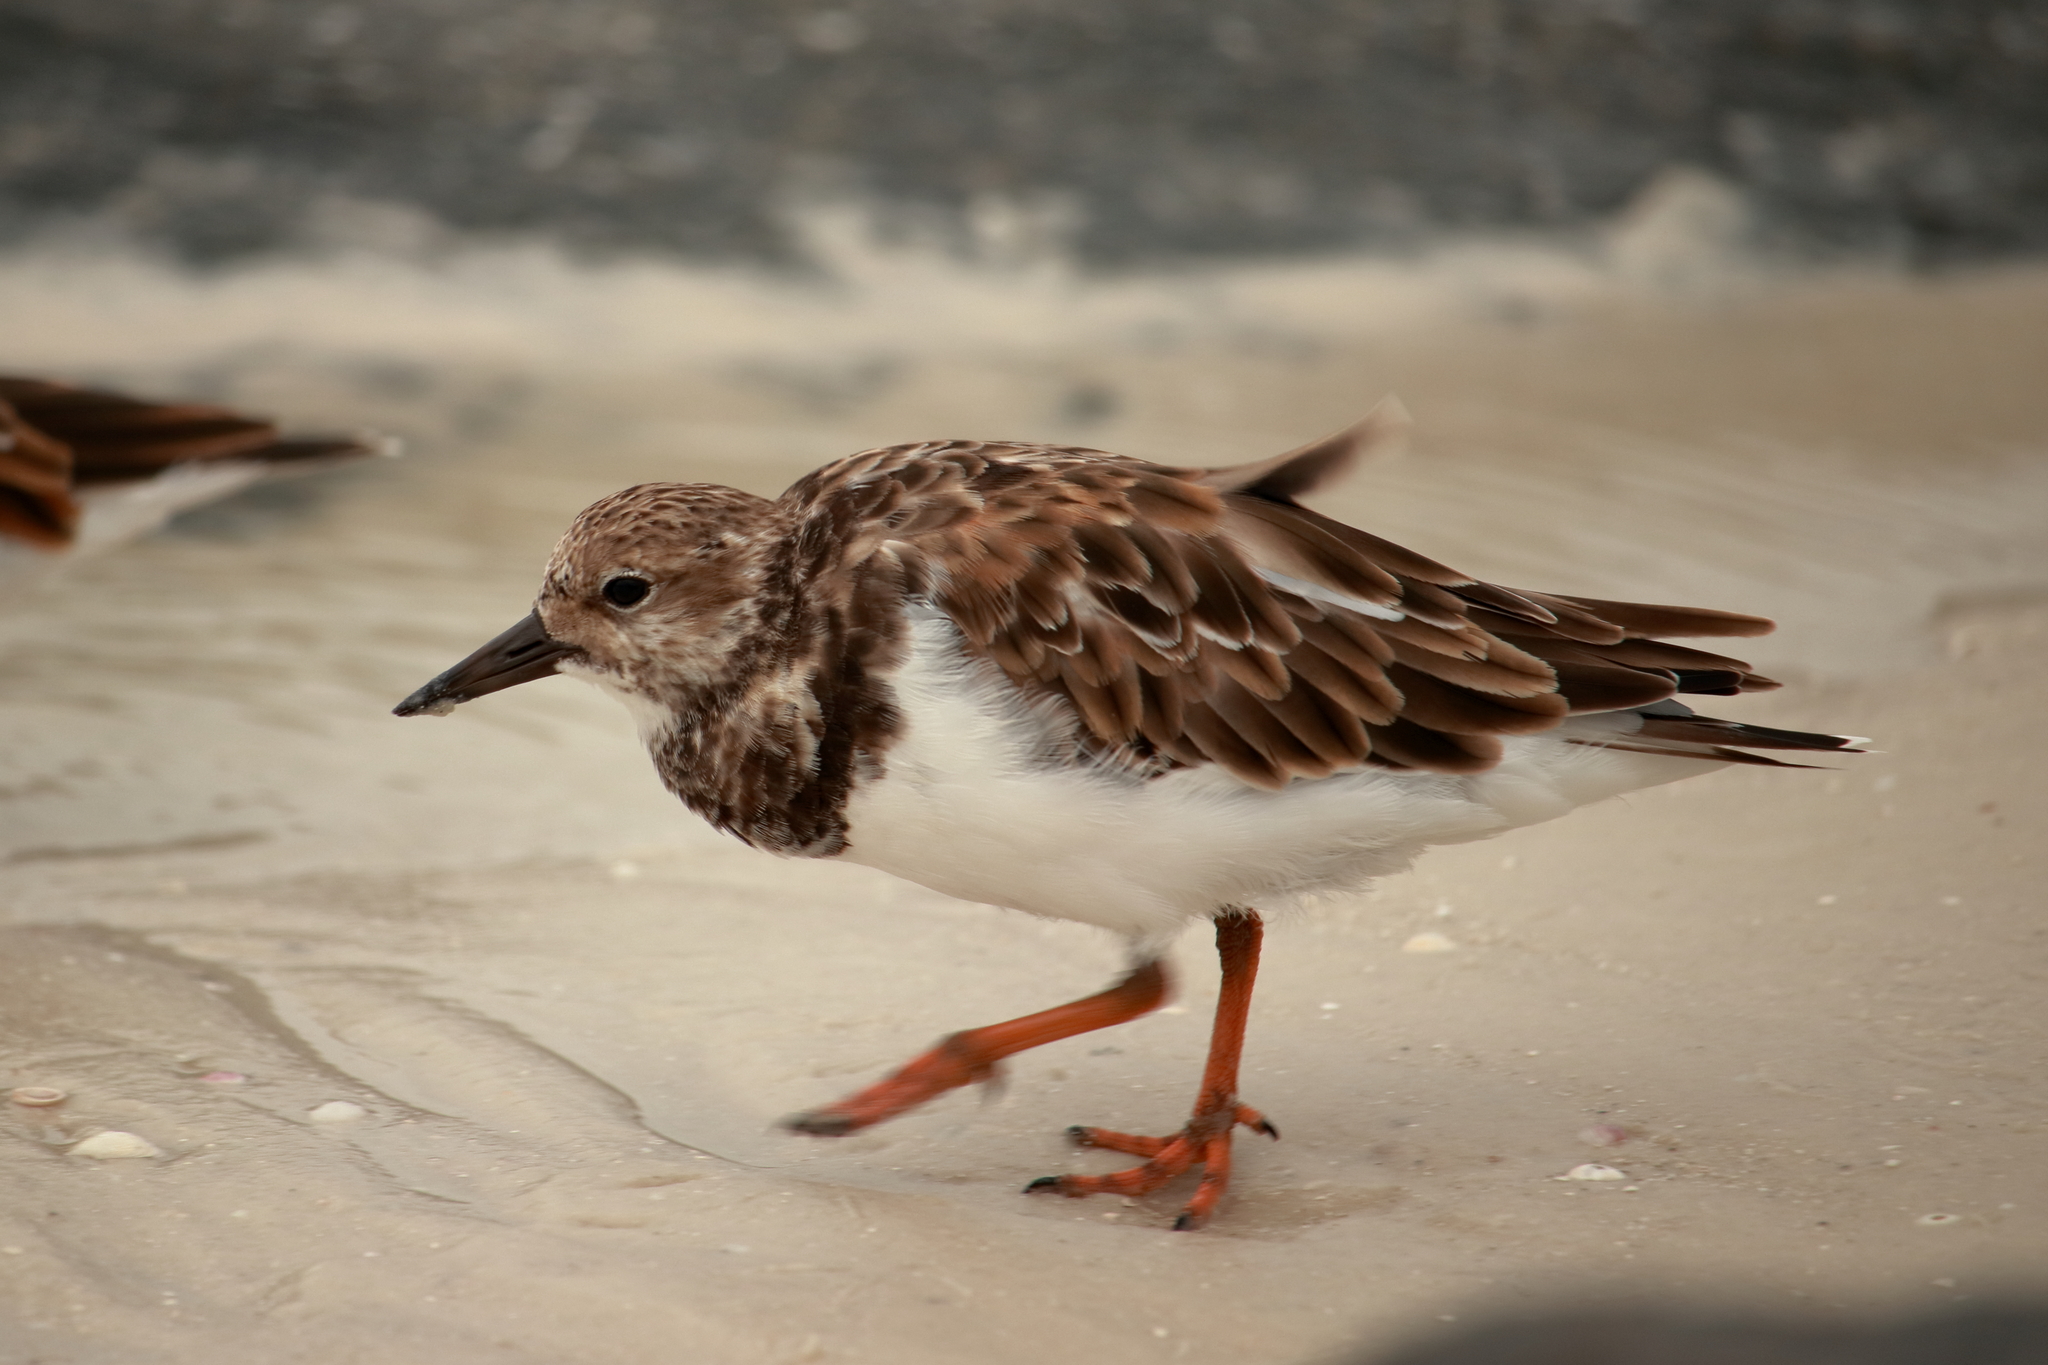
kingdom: Animalia
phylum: Chordata
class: Aves
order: Charadriiformes
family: Scolopacidae
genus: Arenaria
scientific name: Arenaria interpres
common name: Ruddy turnstone
